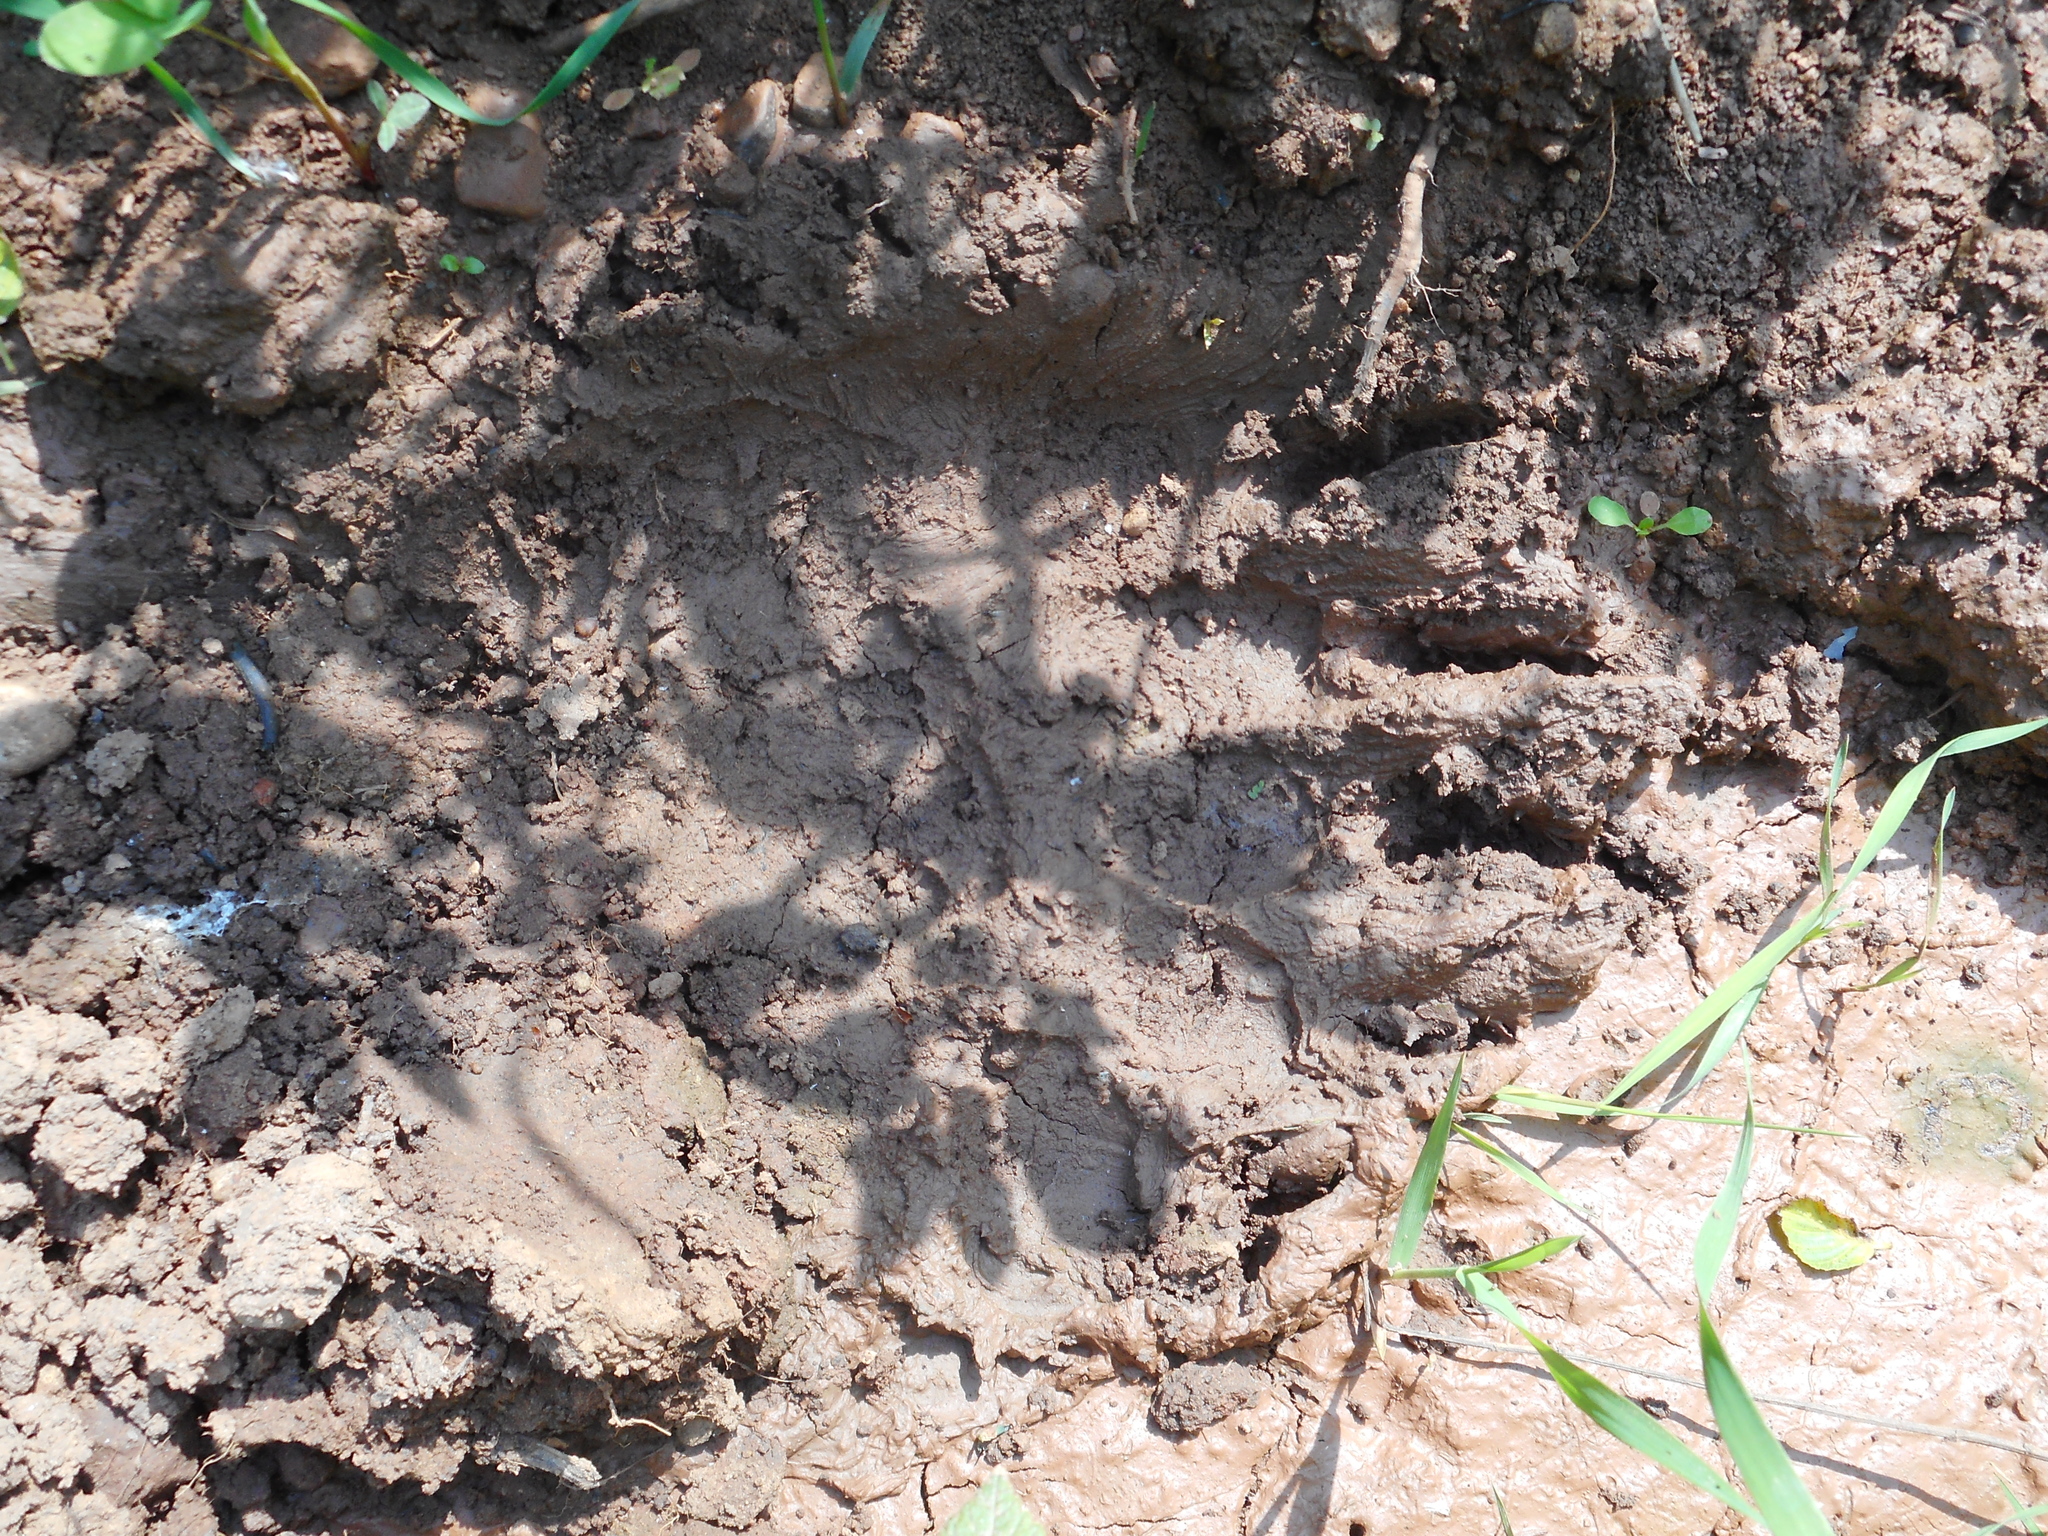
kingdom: Animalia
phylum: Chordata
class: Mammalia
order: Carnivora
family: Ursidae
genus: Ursus
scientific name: Ursus arctos
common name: Brown bear
